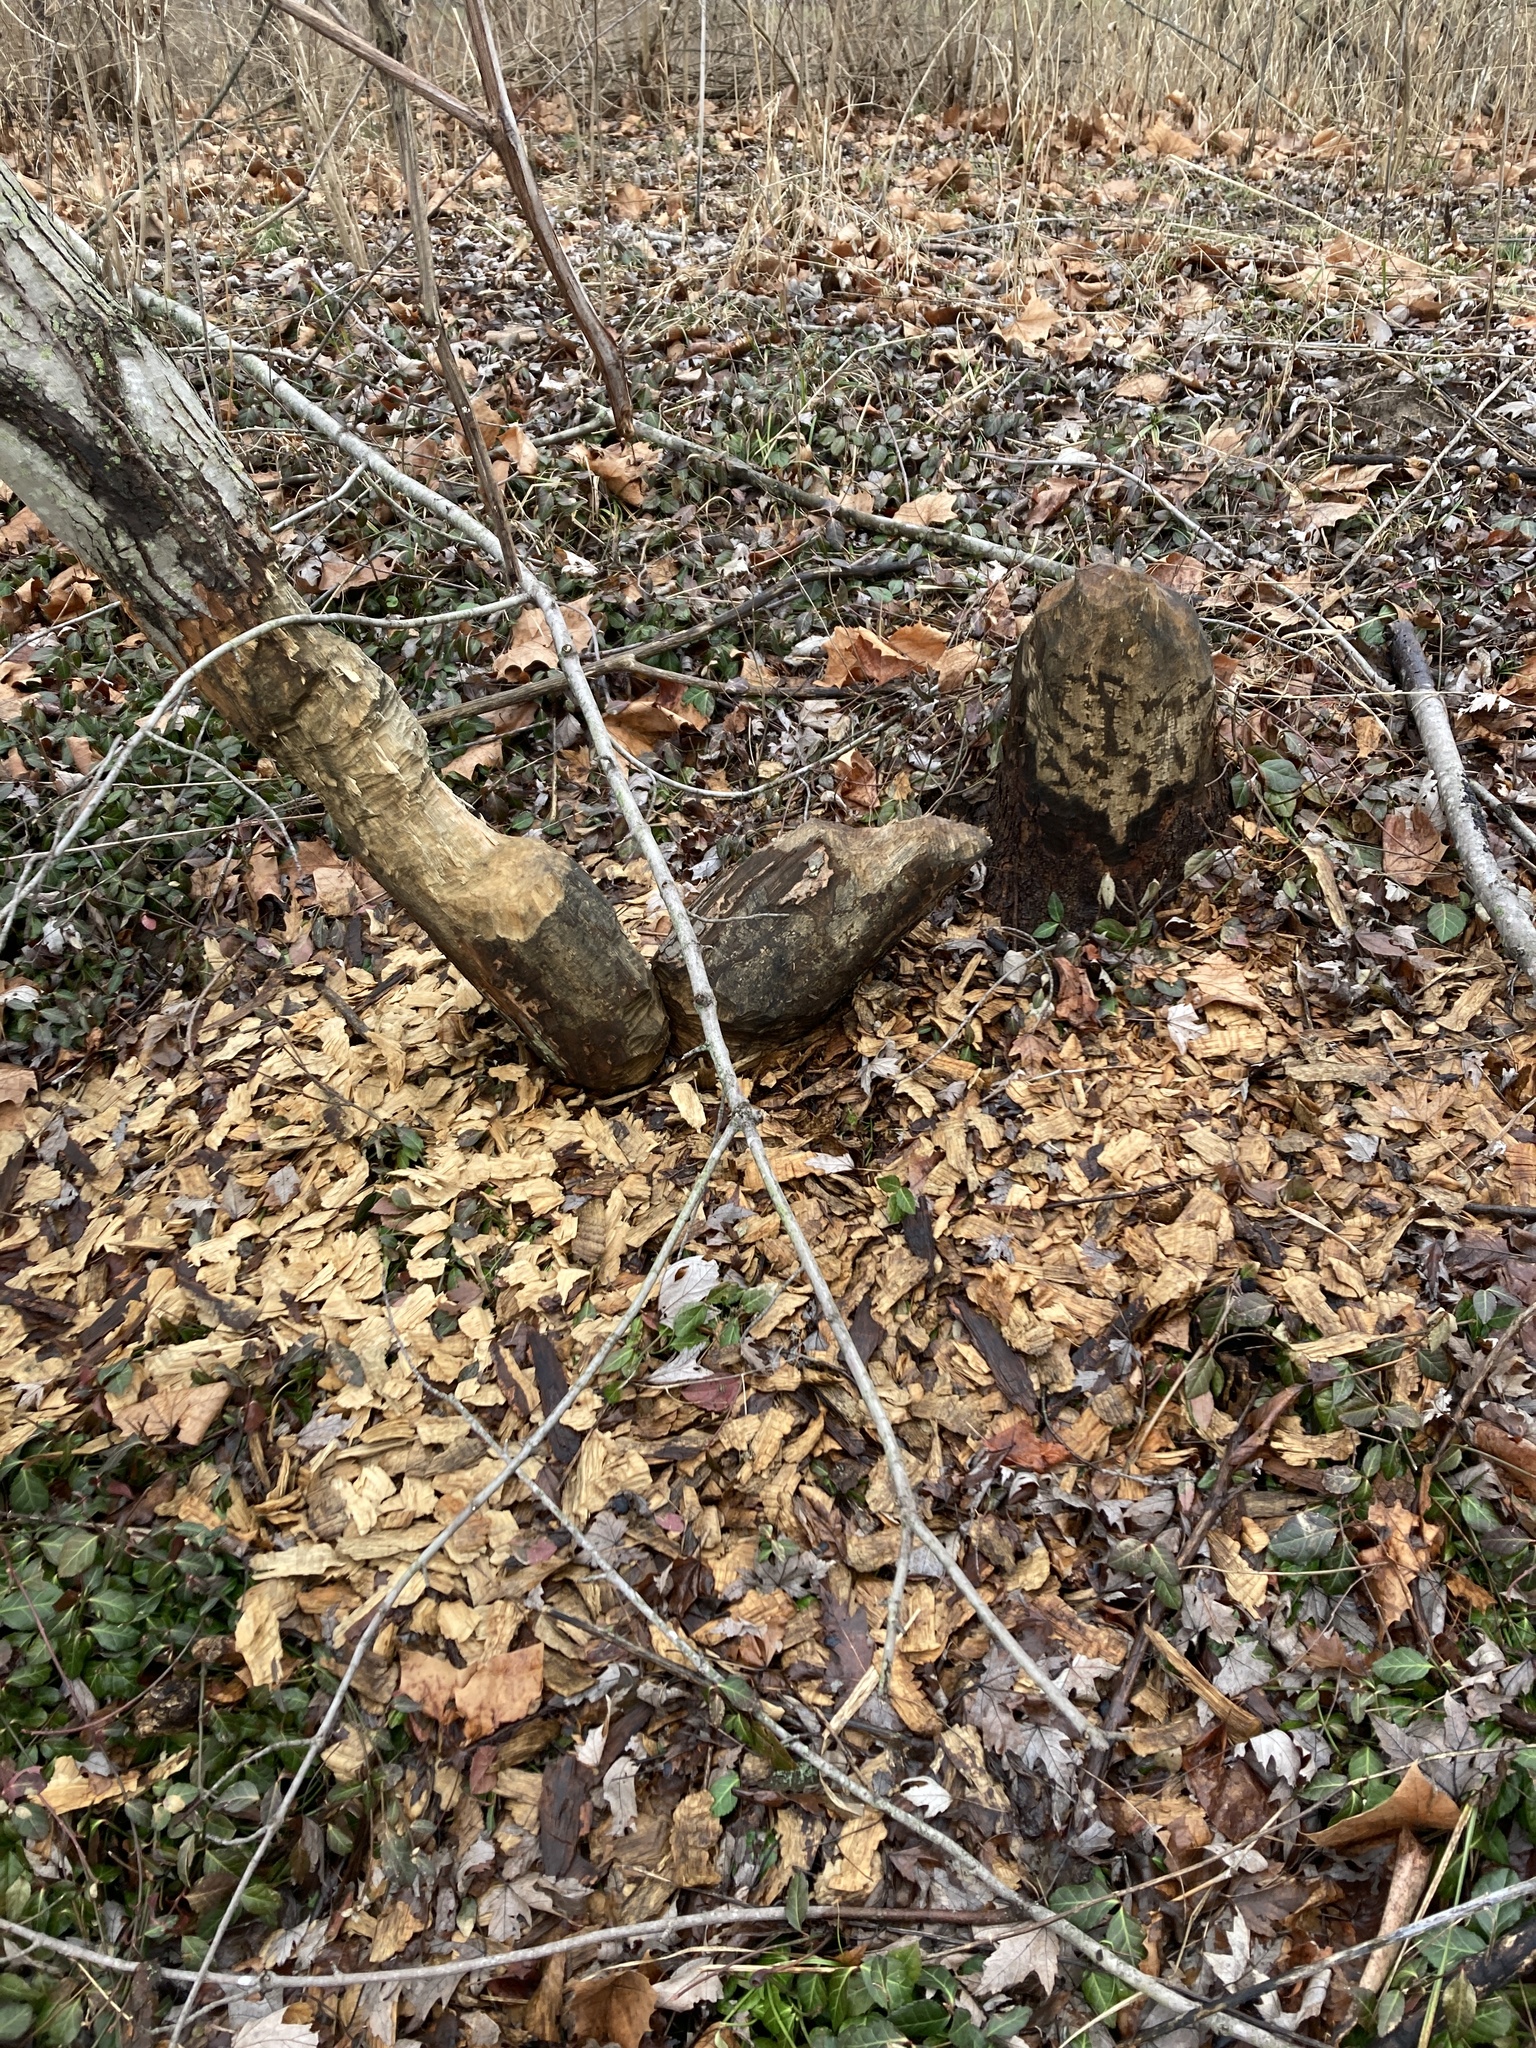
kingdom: Animalia
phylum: Chordata
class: Mammalia
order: Rodentia
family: Castoridae
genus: Castor
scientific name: Castor canadensis
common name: American beaver
